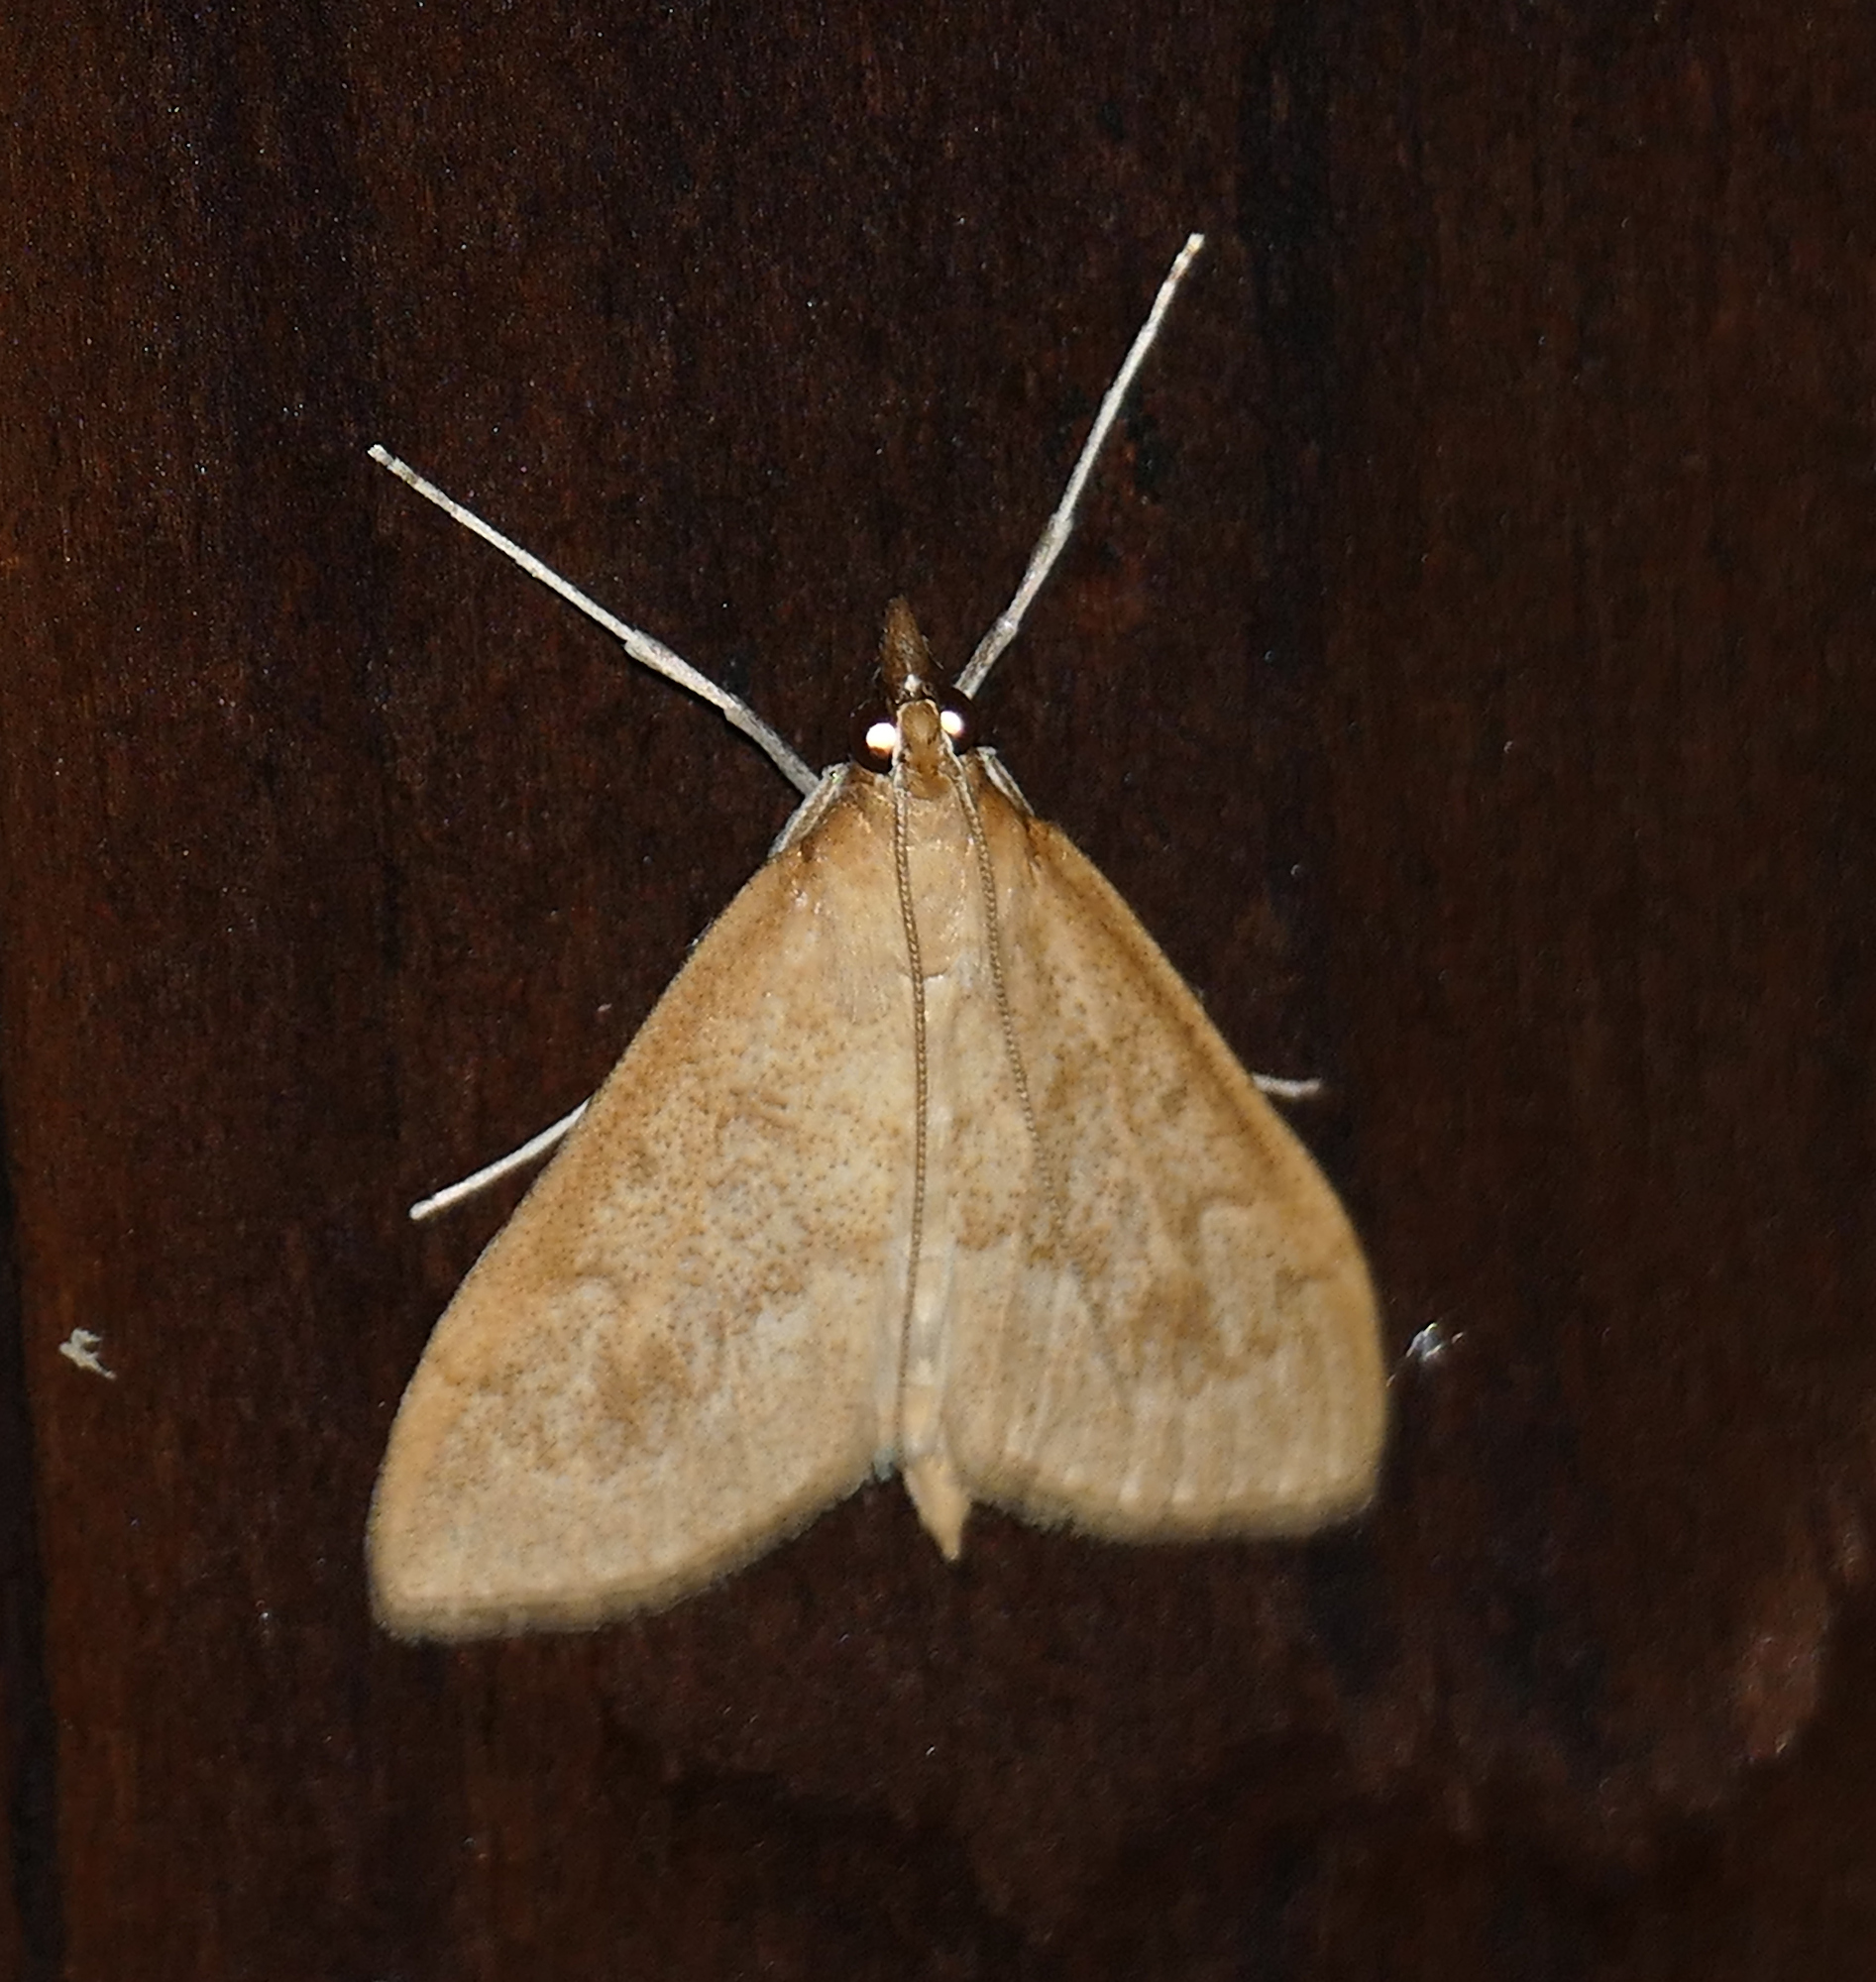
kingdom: Animalia
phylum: Arthropoda
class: Insecta
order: Lepidoptera
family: Crambidae
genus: Saucrobotys
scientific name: Saucrobotys futilalis
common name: Dogbane saucrobotys moth
